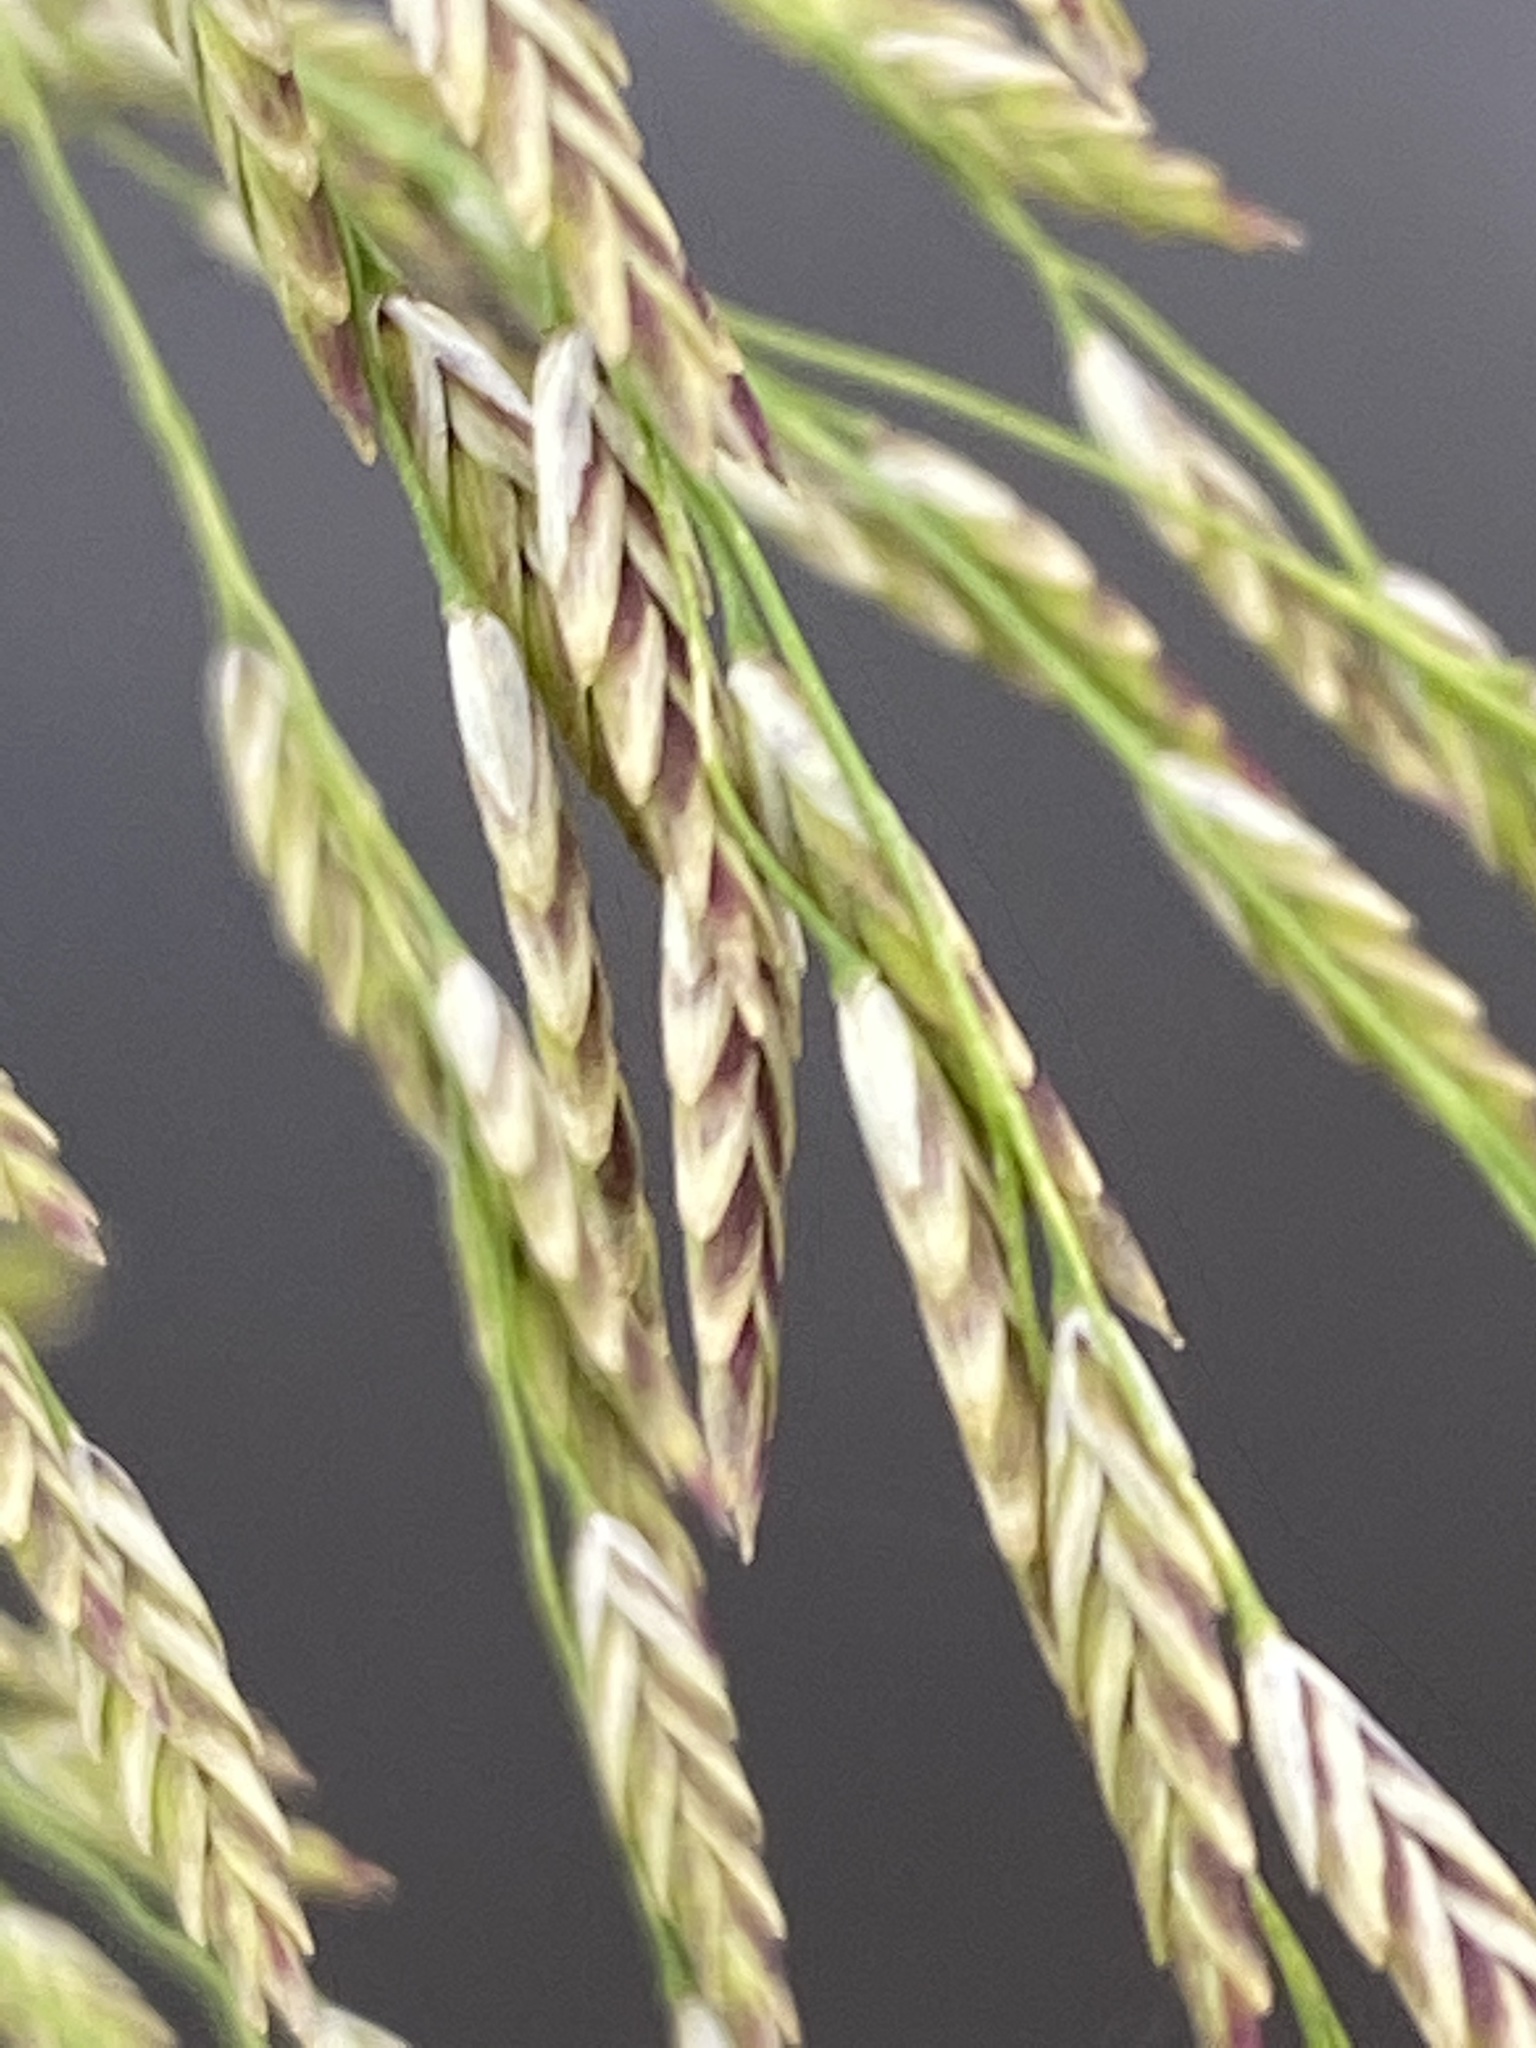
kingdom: Plantae
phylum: Tracheophyta
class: Liliopsida
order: Poales
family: Poaceae
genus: Glyceria
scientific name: Glyceria maxima
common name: Reed mannagrass
